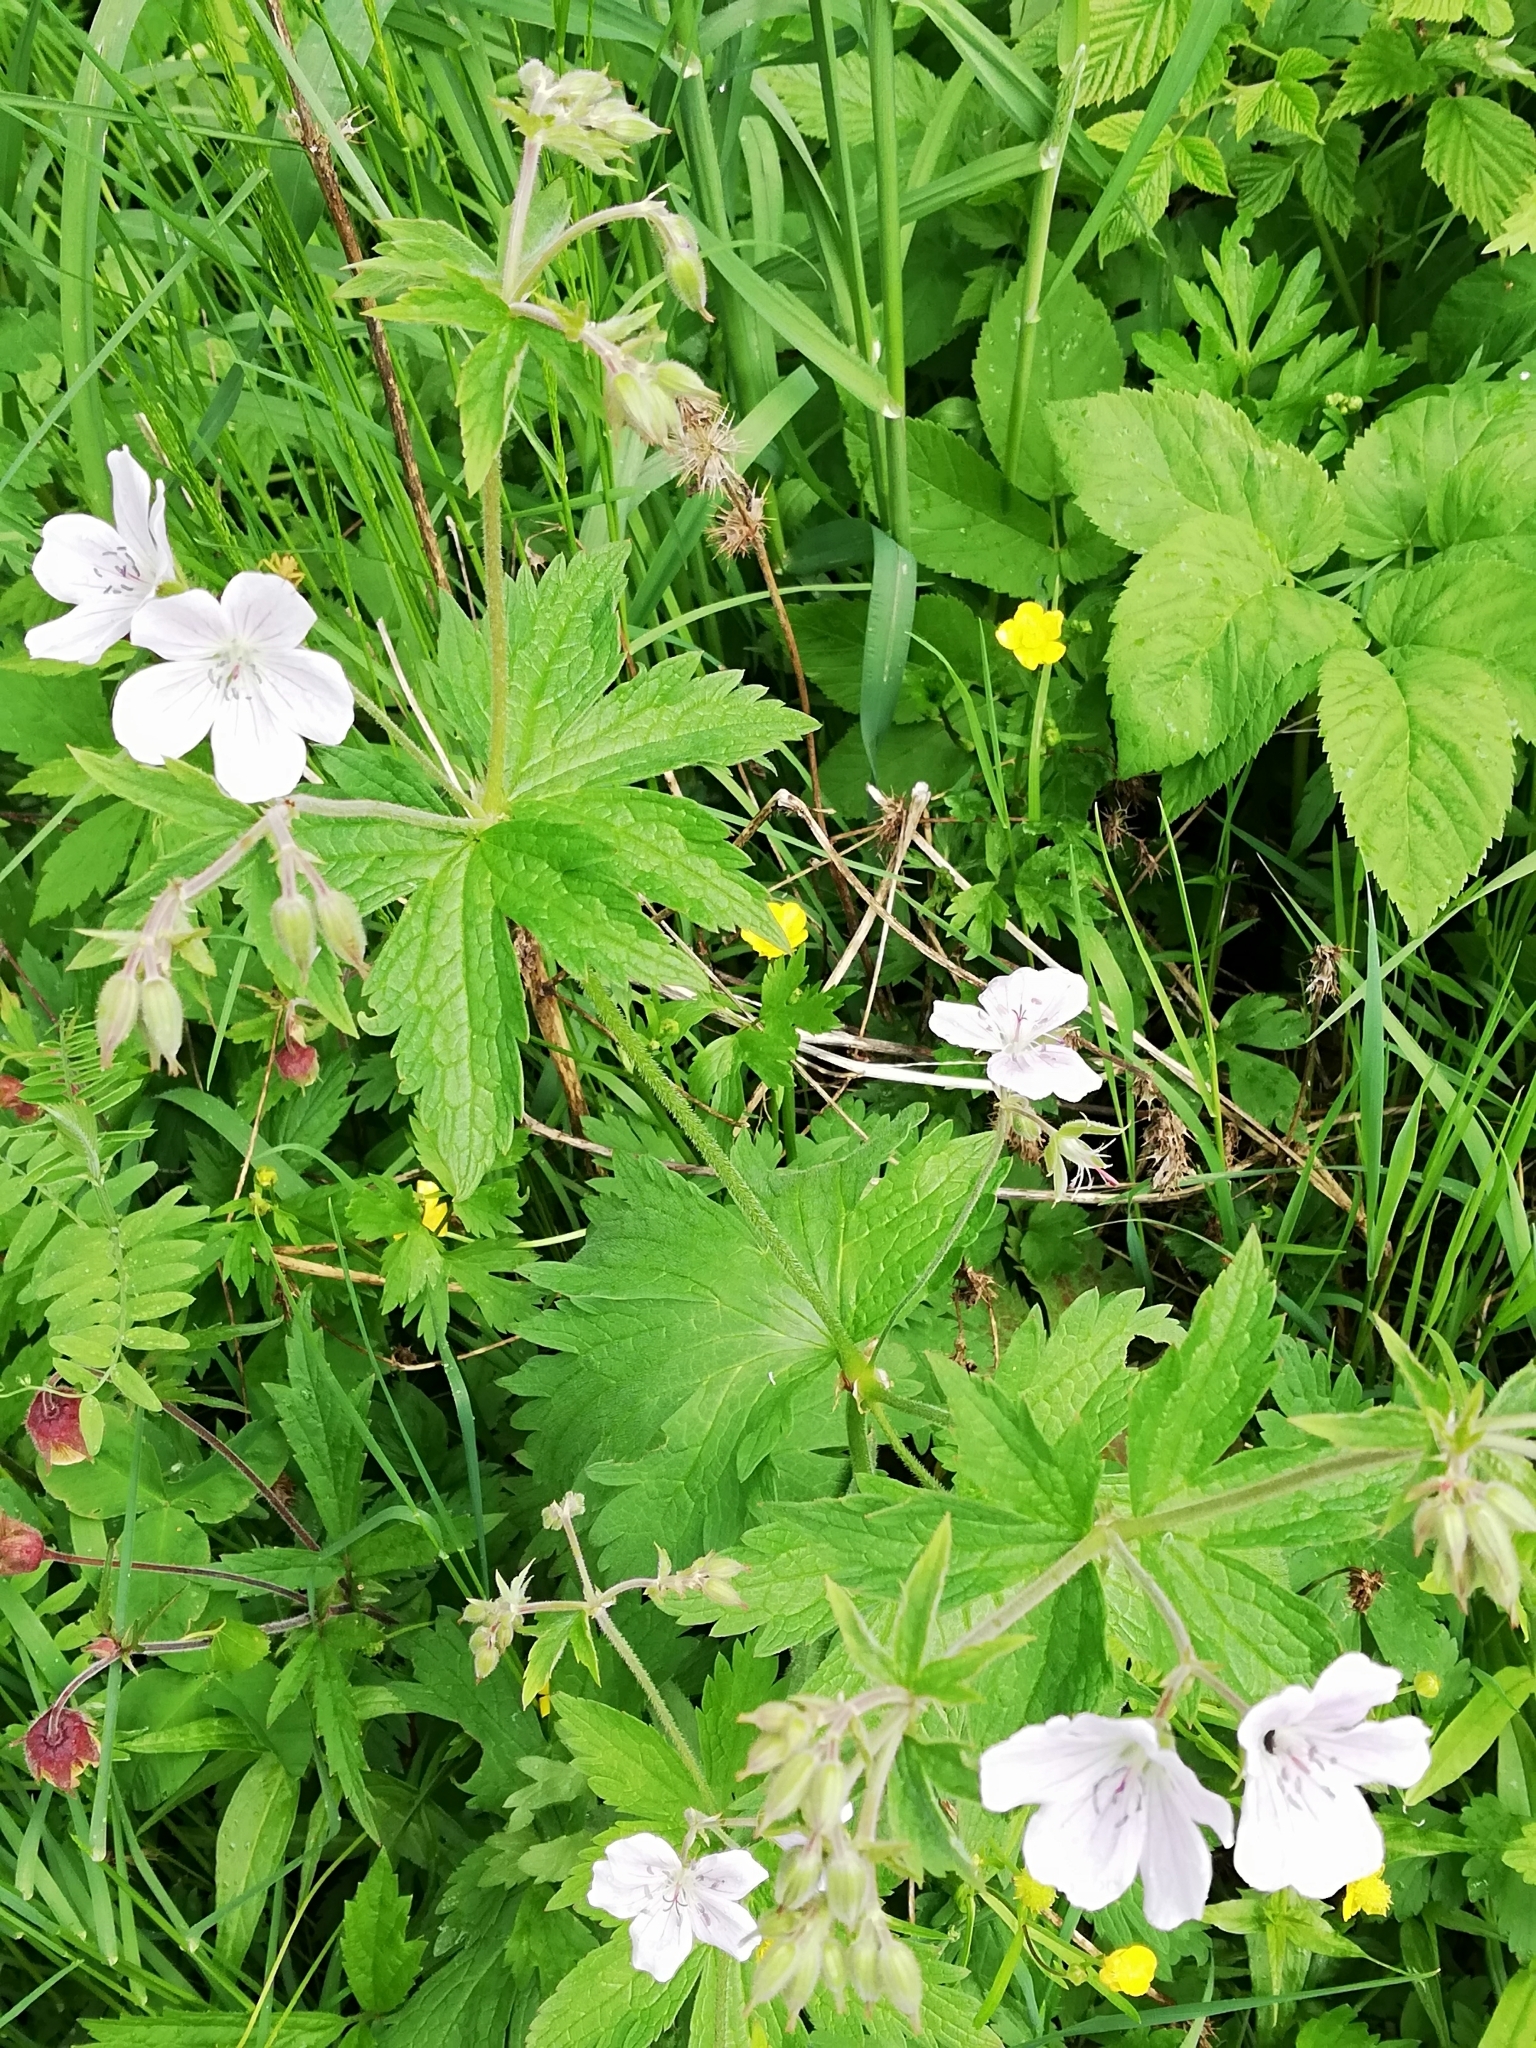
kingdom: Plantae
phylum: Tracheophyta
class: Magnoliopsida
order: Geraniales
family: Geraniaceae
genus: Geranium
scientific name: Geranium sylvaticum
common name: Wood crane's-bill
